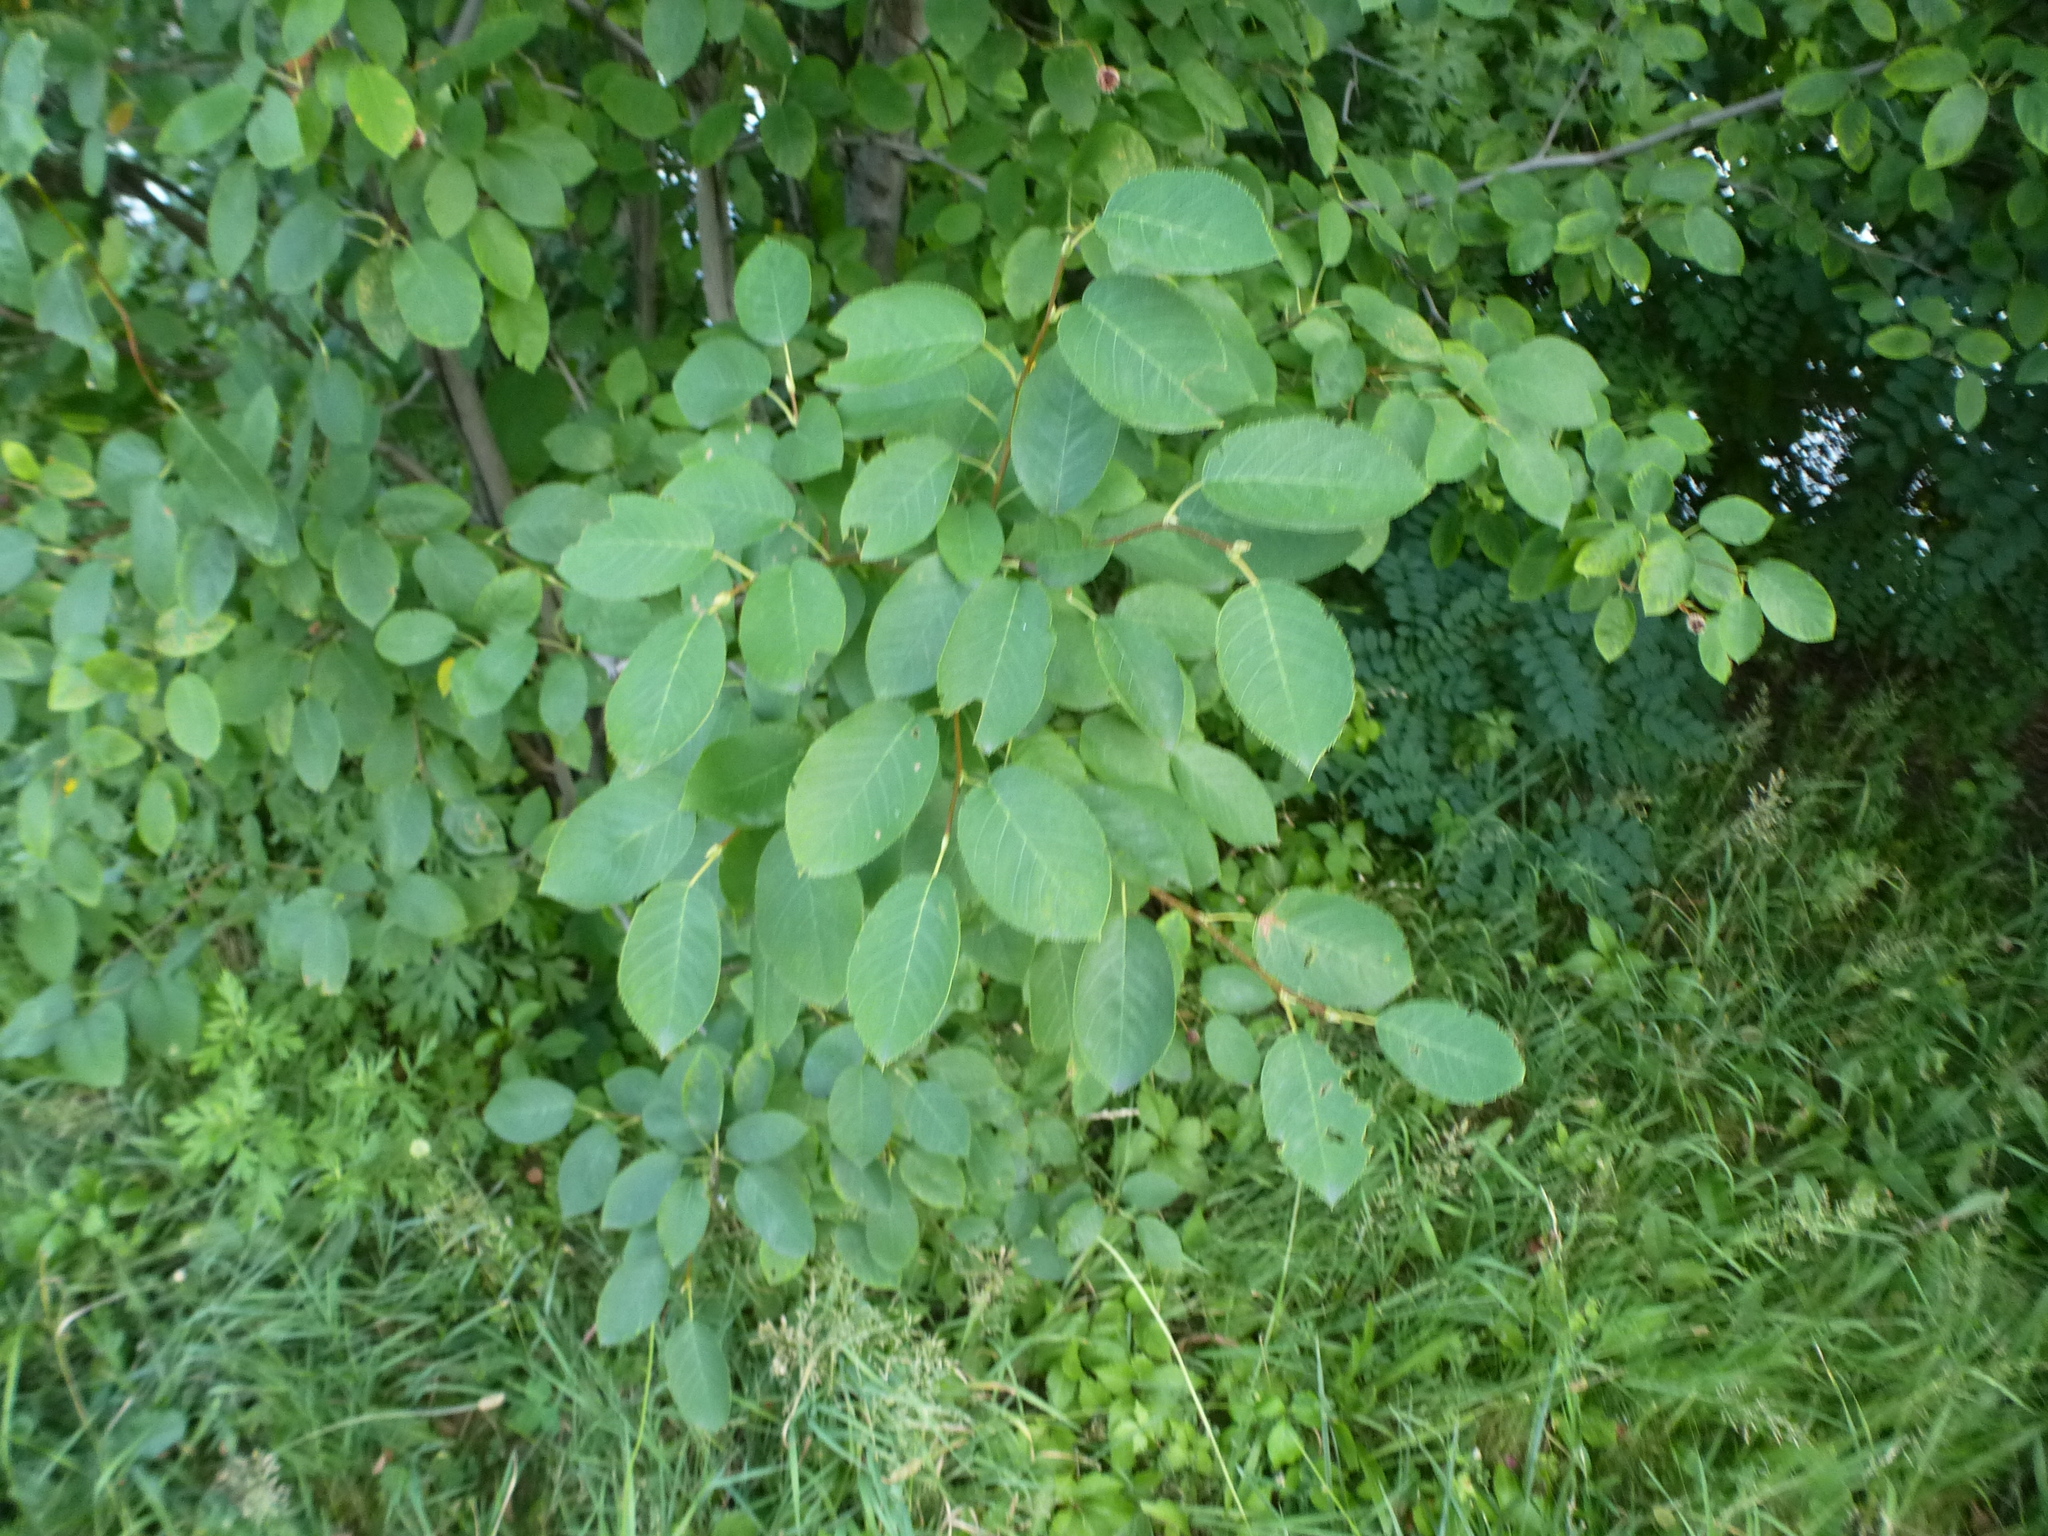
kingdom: Plantae
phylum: Tracheophyta
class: Magnoliopsida
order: Fabales
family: Fabaceae
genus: Robinia
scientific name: Robinia pseudoacacia
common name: Black locust
